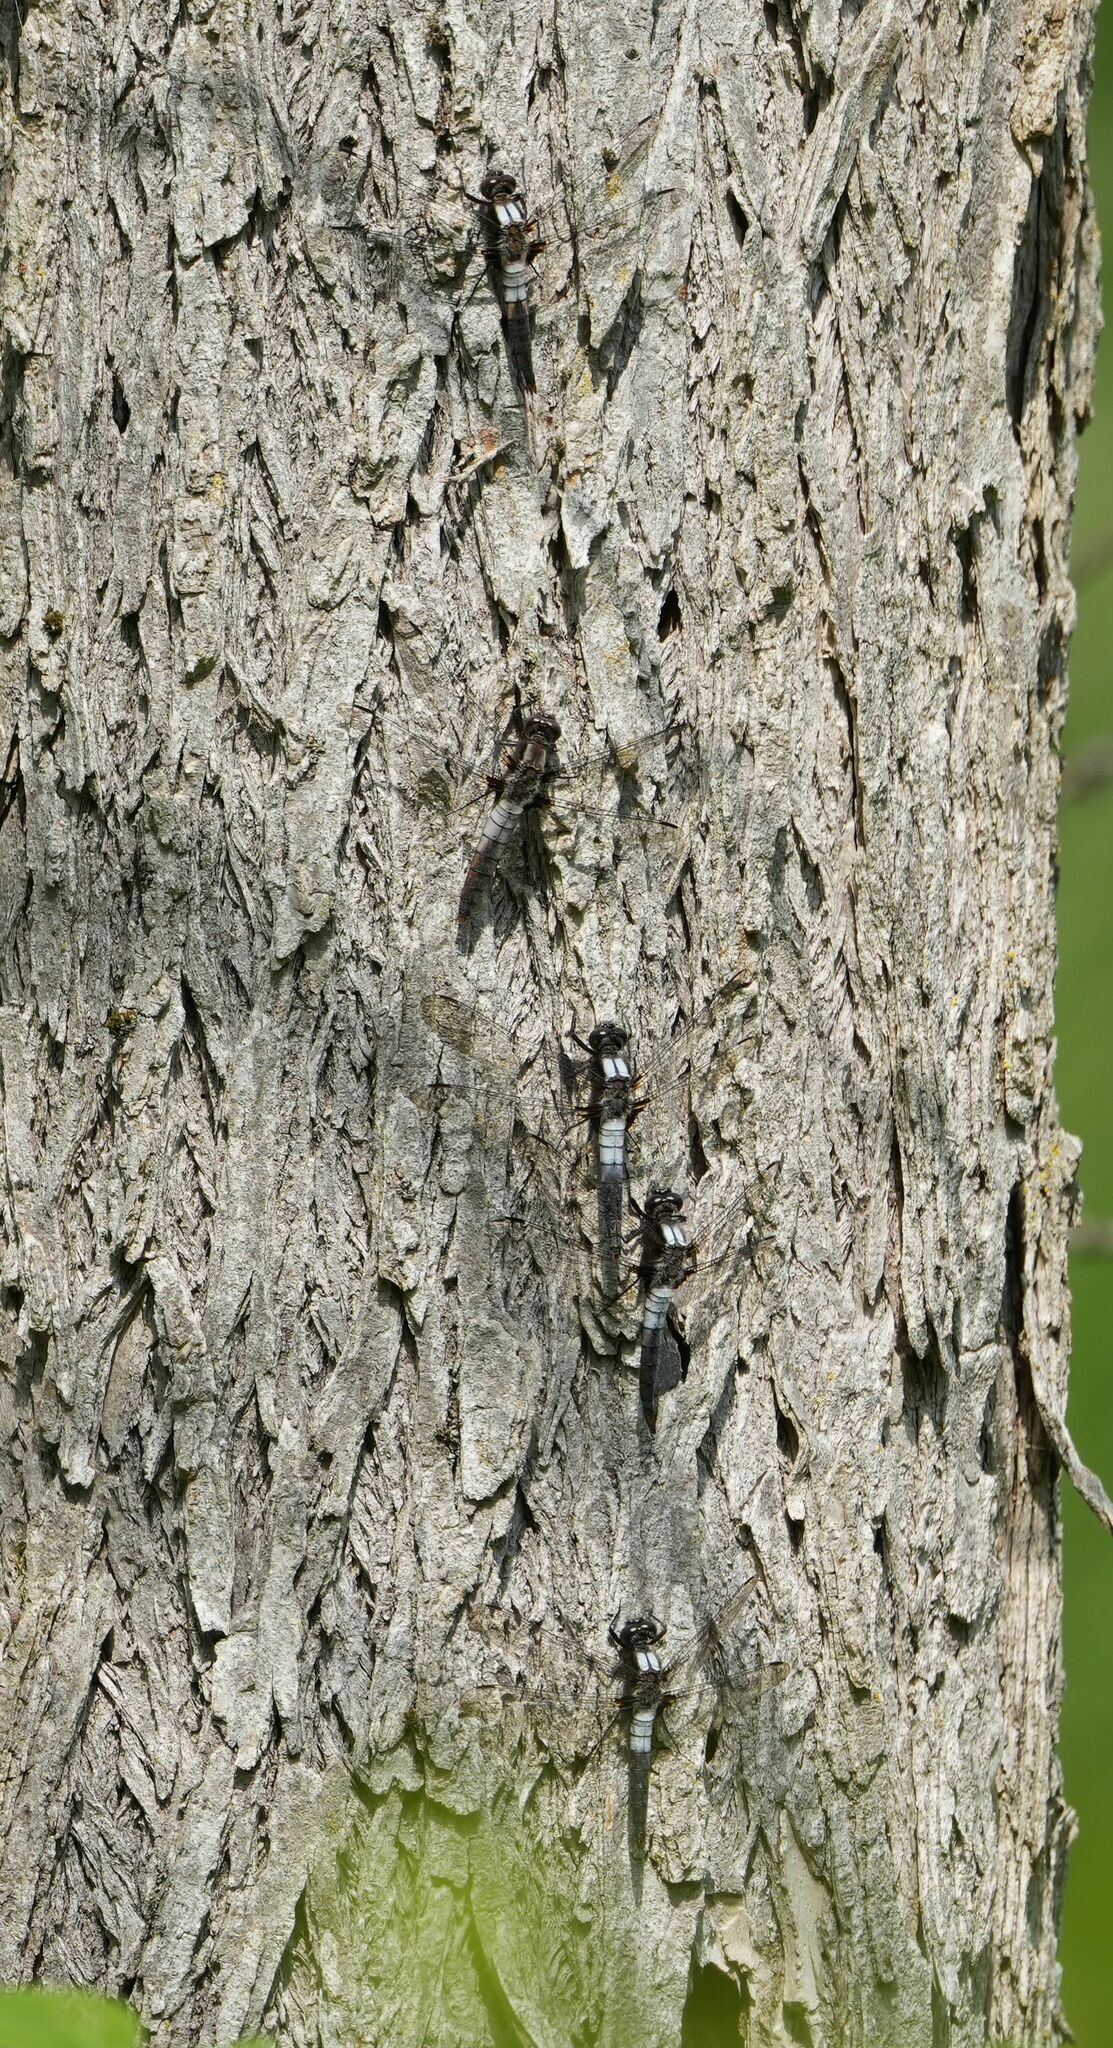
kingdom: Animalia
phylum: Arthropoda
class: Insecta
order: Odonata
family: Libellulidae
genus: Ladona
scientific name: Ladona julia
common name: Chalk-fronted corporal
